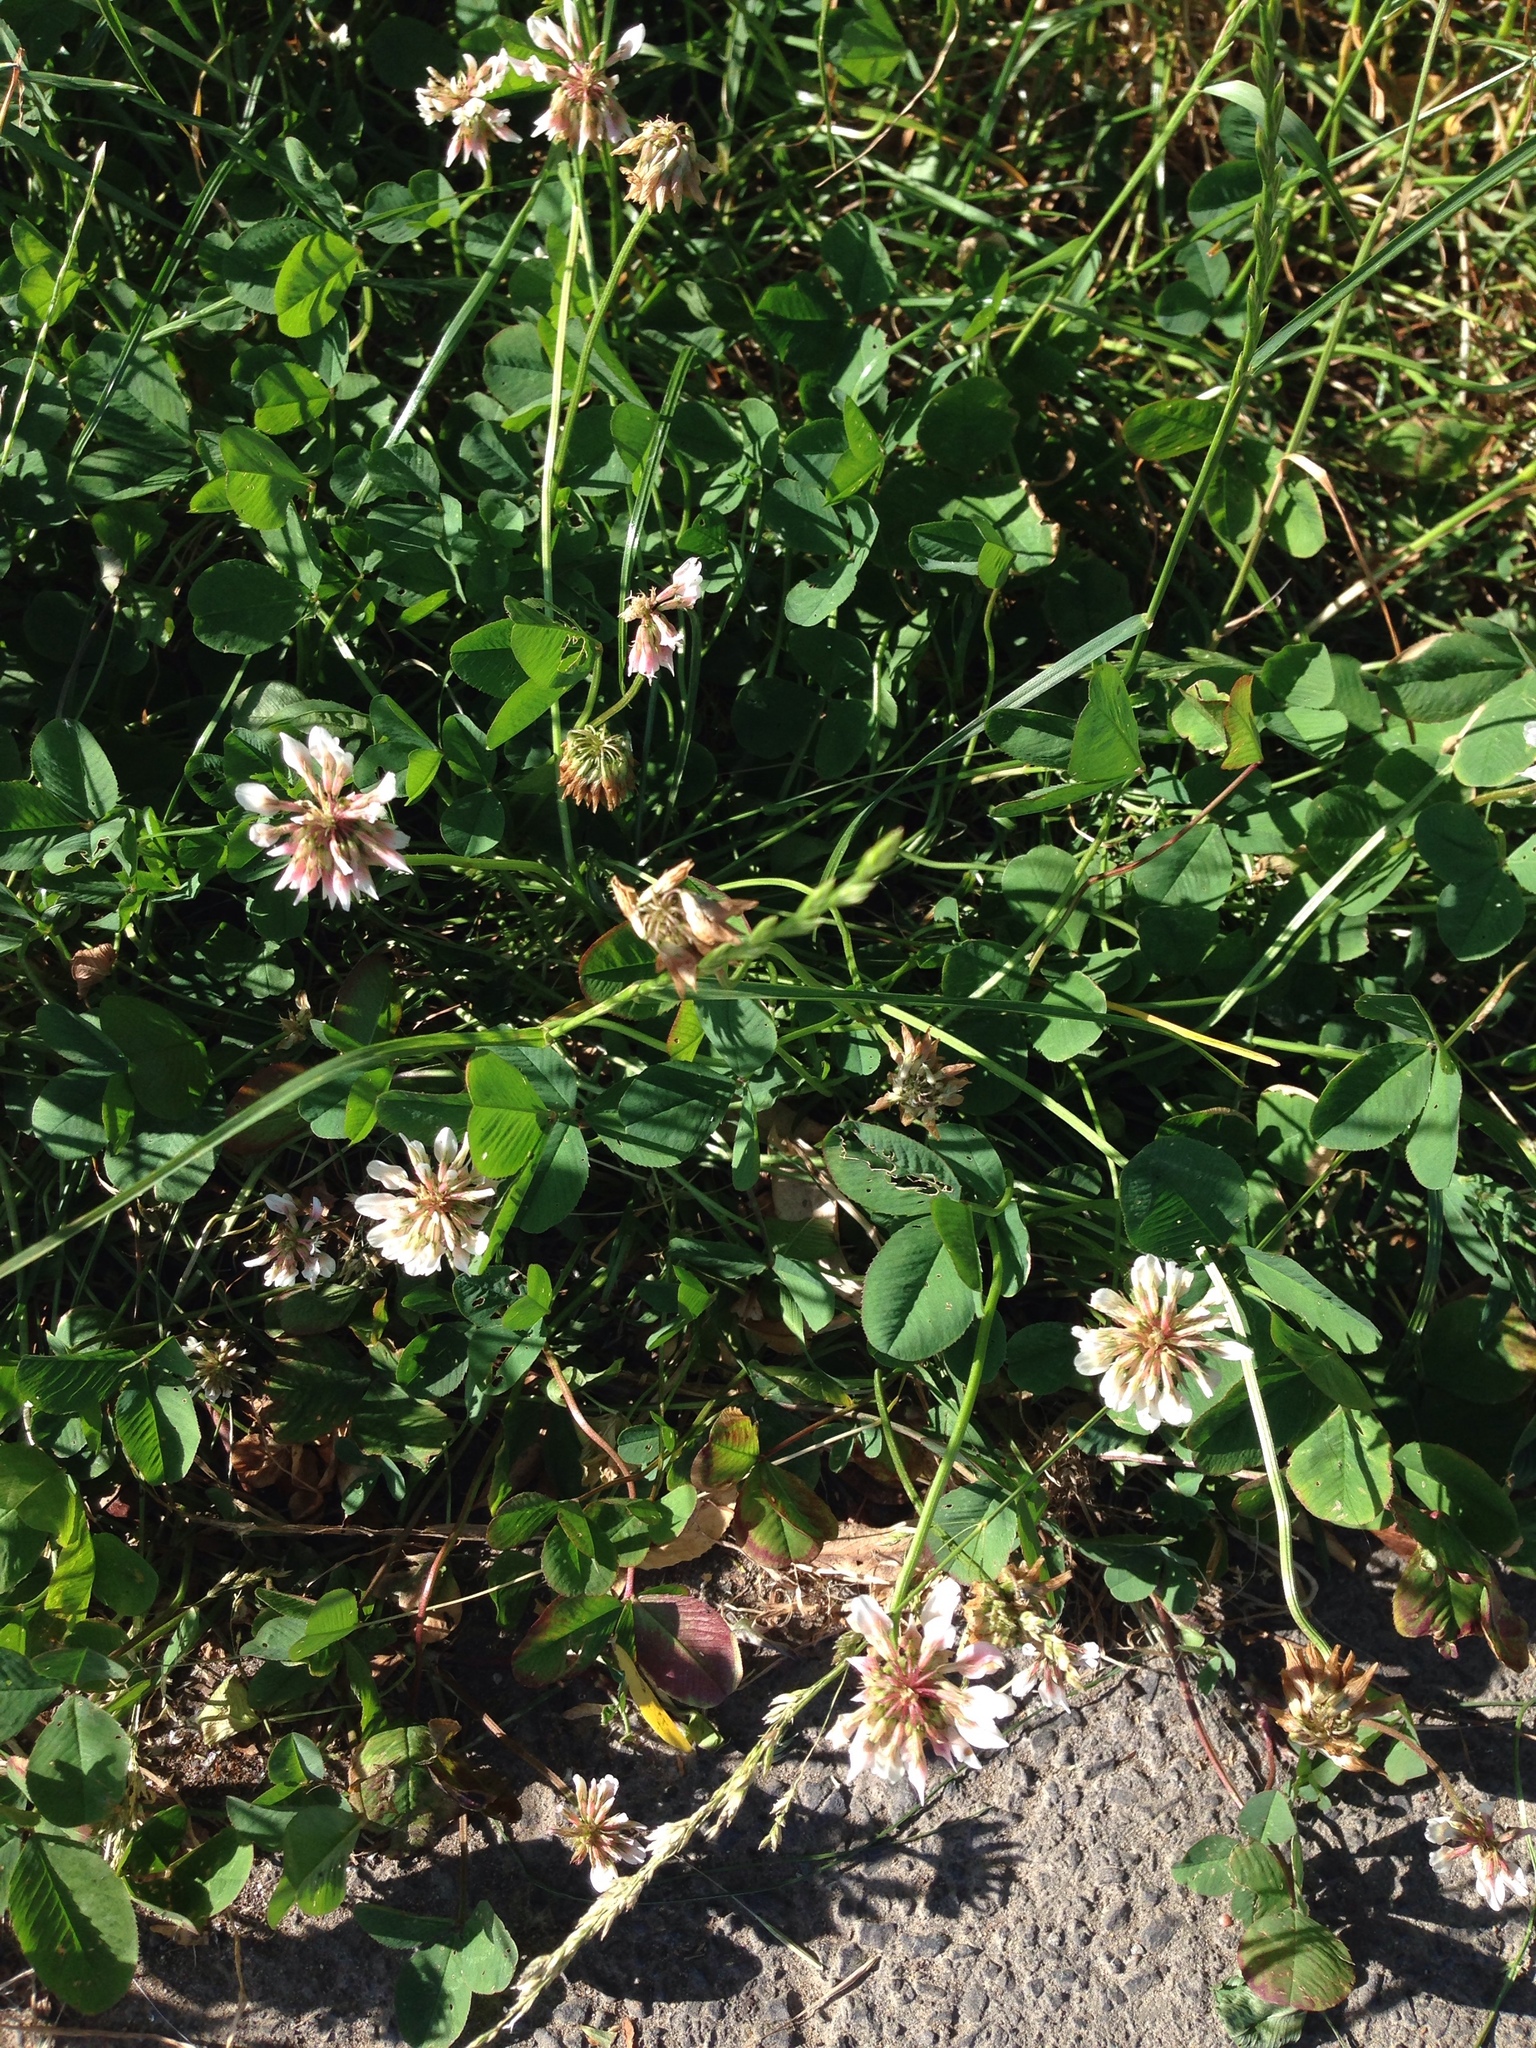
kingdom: Plantae
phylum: Tracheophyta
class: Magnoliopsida
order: Fabales
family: Fabaceae
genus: Trifolium
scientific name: Trifolium repens
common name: White clover
